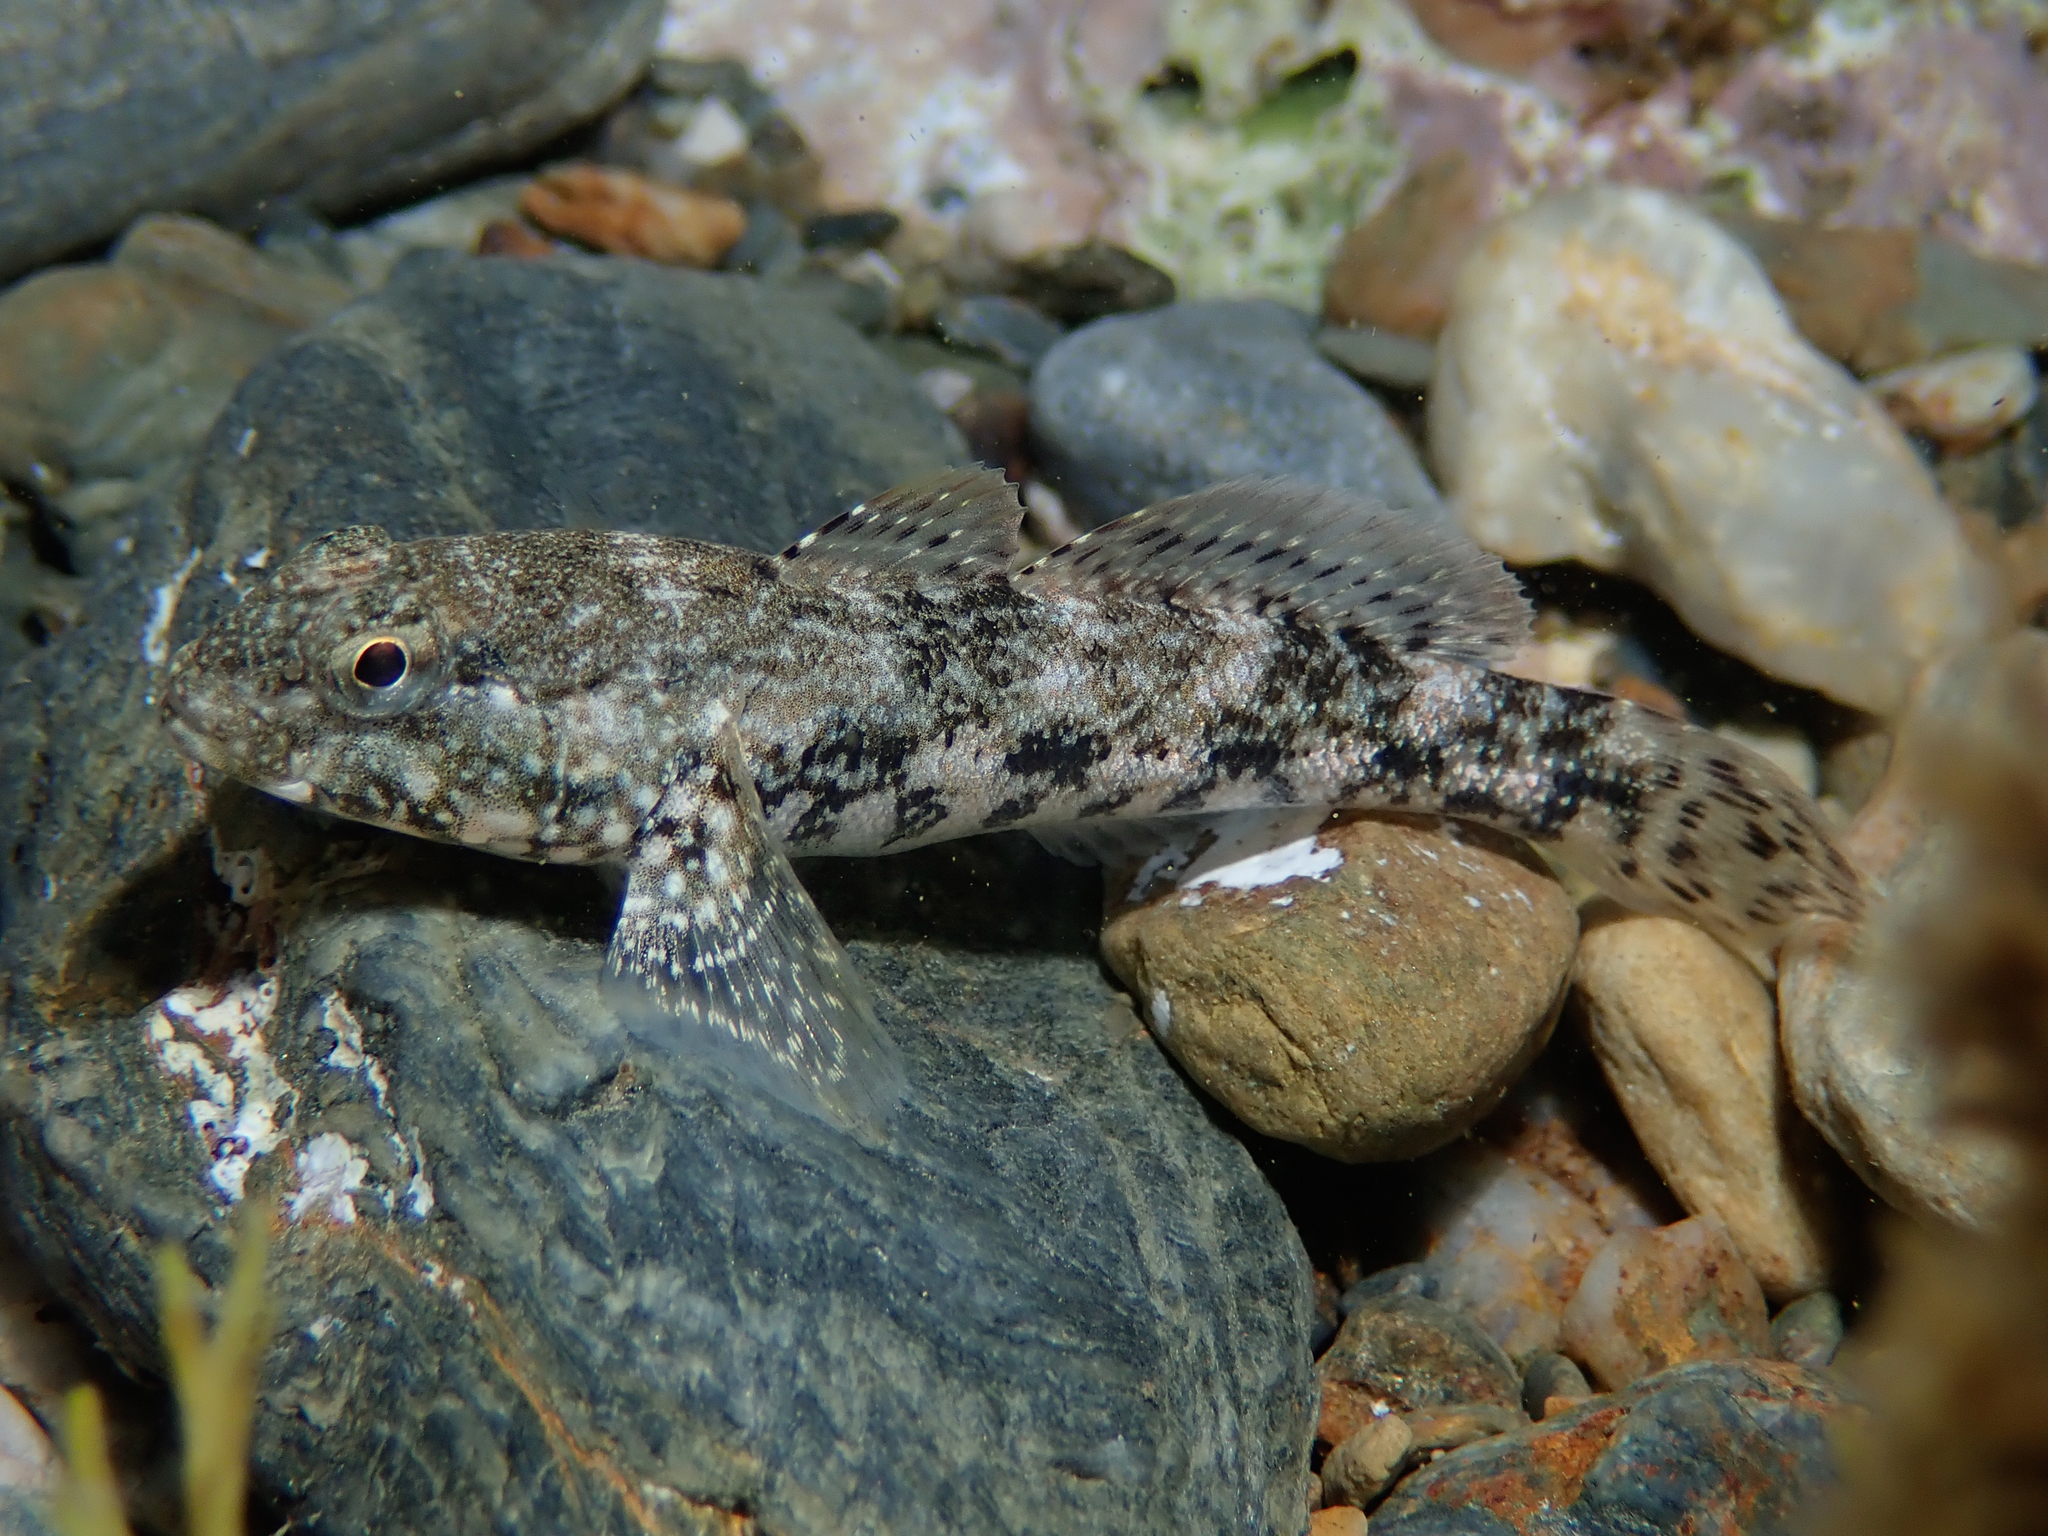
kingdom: Animalia
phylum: Chordata
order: Perciformes
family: Gobiidae
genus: Gobius
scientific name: Gobius cobitis
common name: Giant goby
